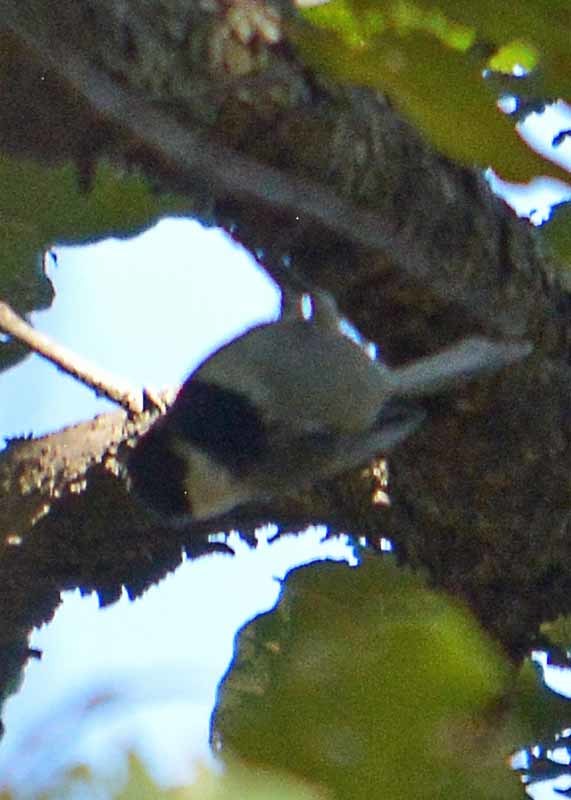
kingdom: Animalia
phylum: Chordata
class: Aves
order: Passeriformes
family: Paridae
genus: Poecile
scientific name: Poecile sclateri
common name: Mexican chickadee
